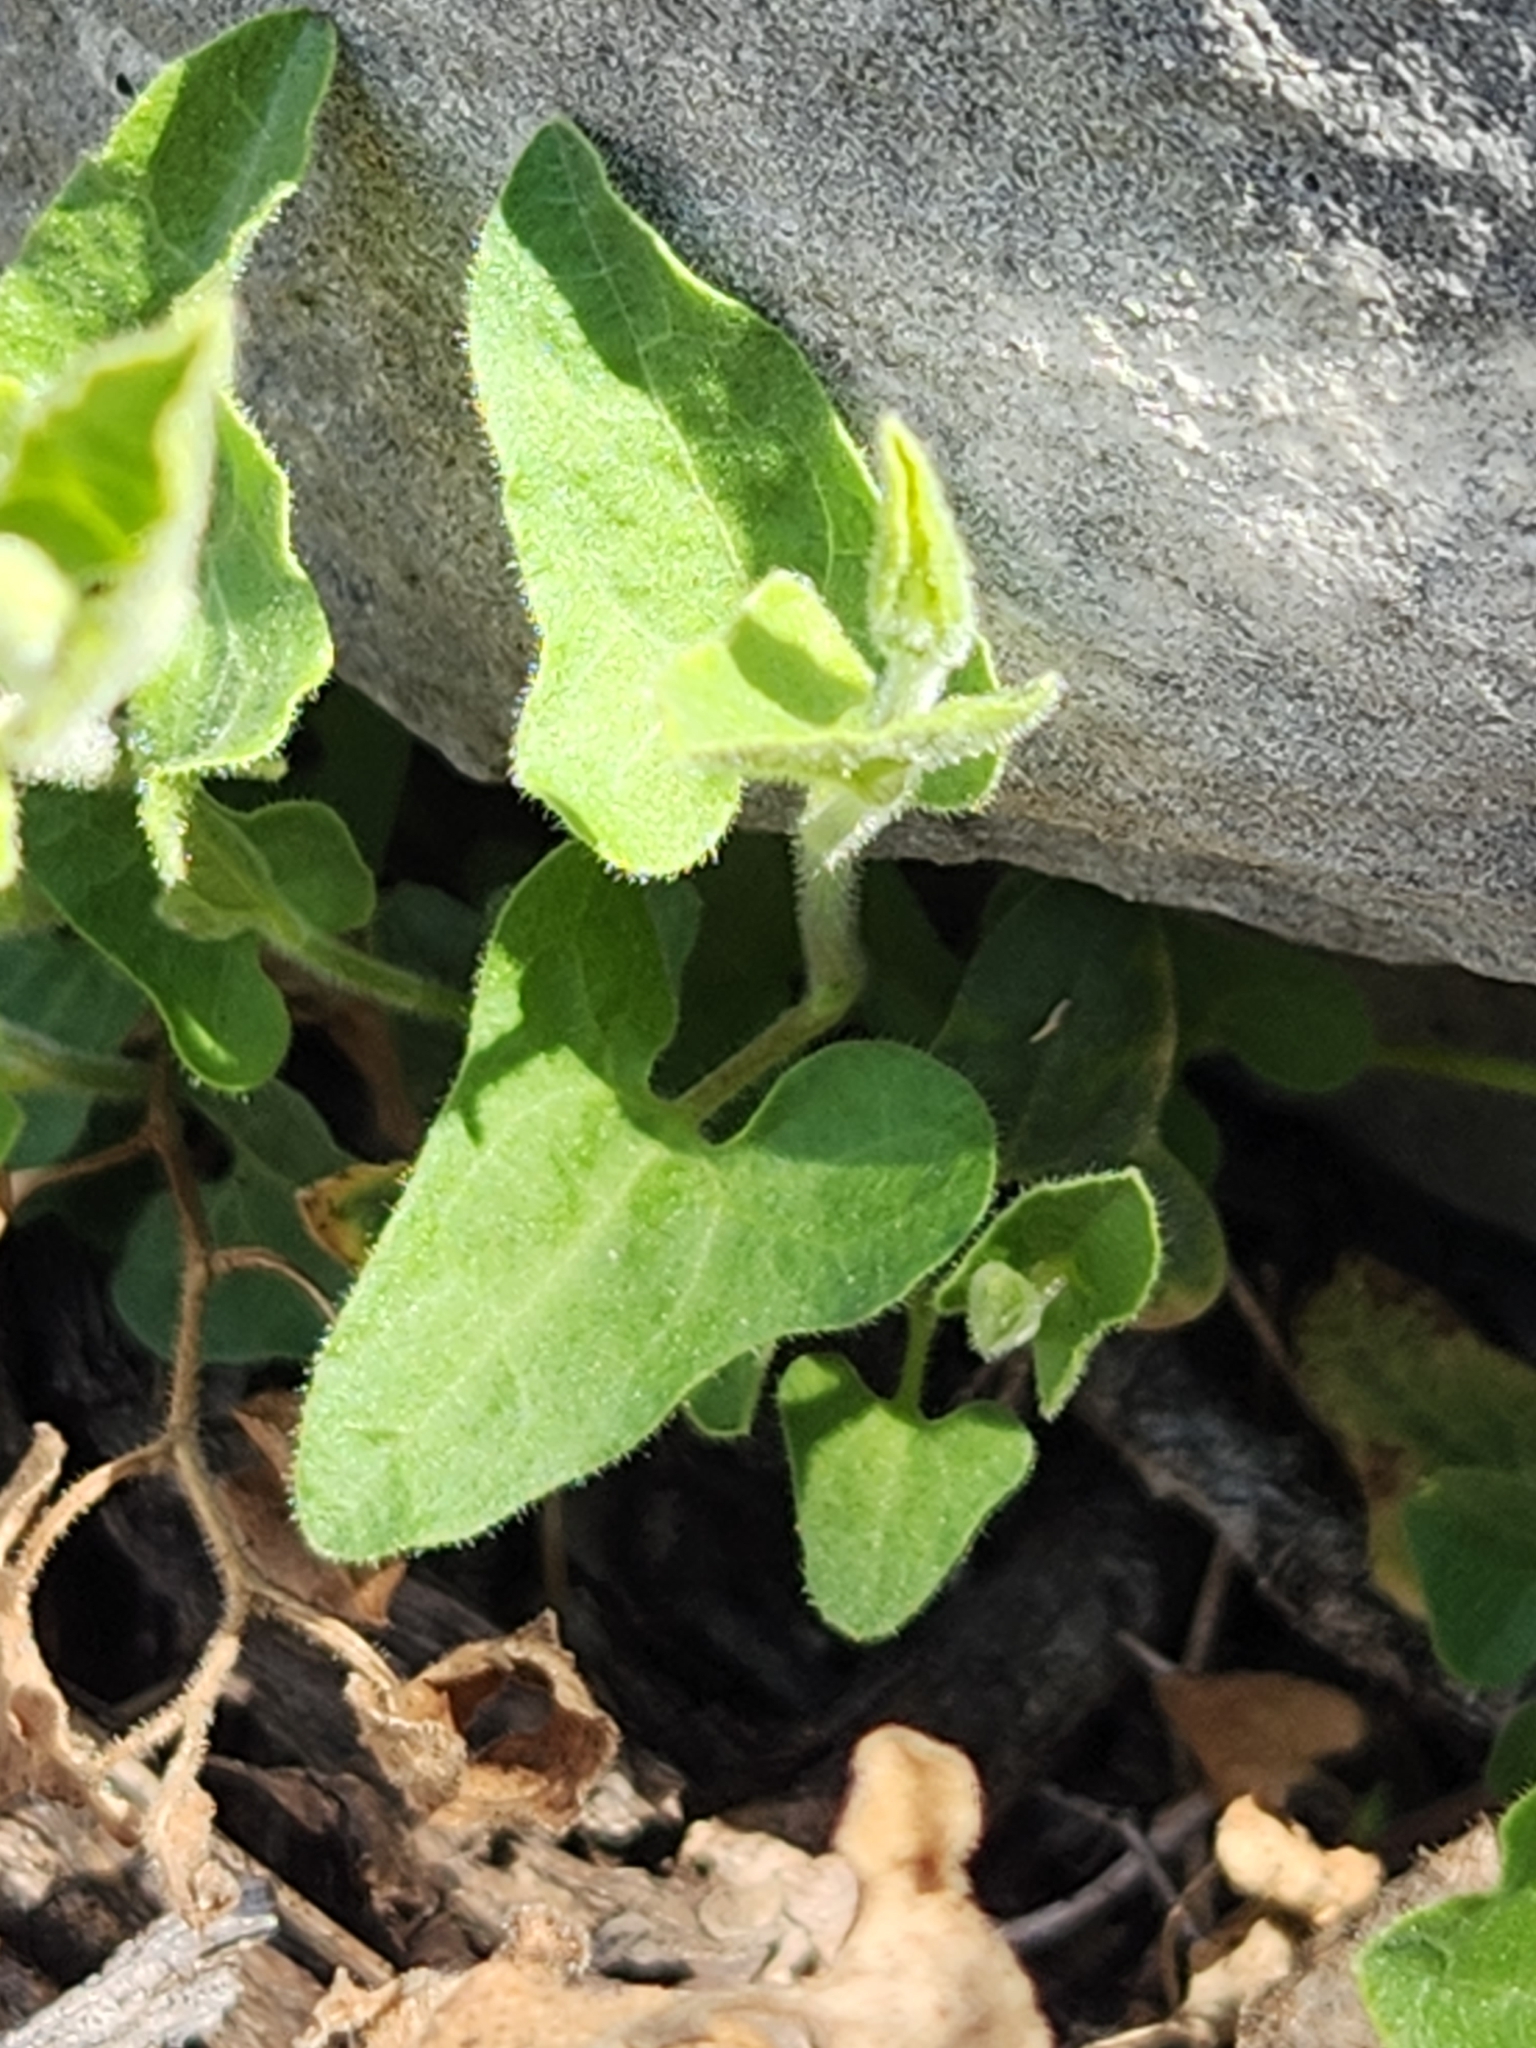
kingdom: Plantae
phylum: Tracheophyta
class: Magnoliopsida
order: Piperales
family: Aristolochiaceae
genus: Aristolochia
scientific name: Aristolochia coryi
